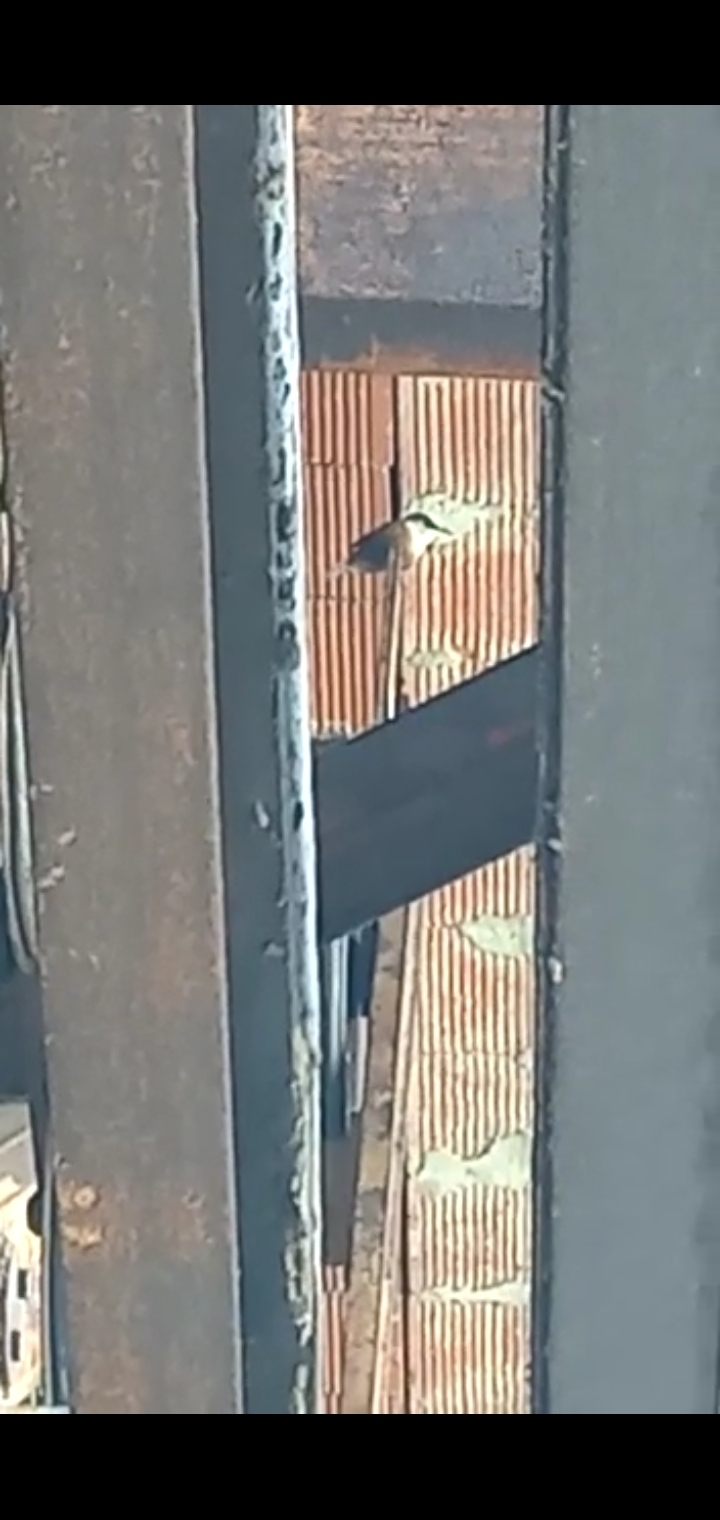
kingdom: Animalia
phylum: Chordata
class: Aves
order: Passeriformes
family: Troglodytidae
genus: Catherpes
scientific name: Catherpes mexicanus
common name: Canyon wren
